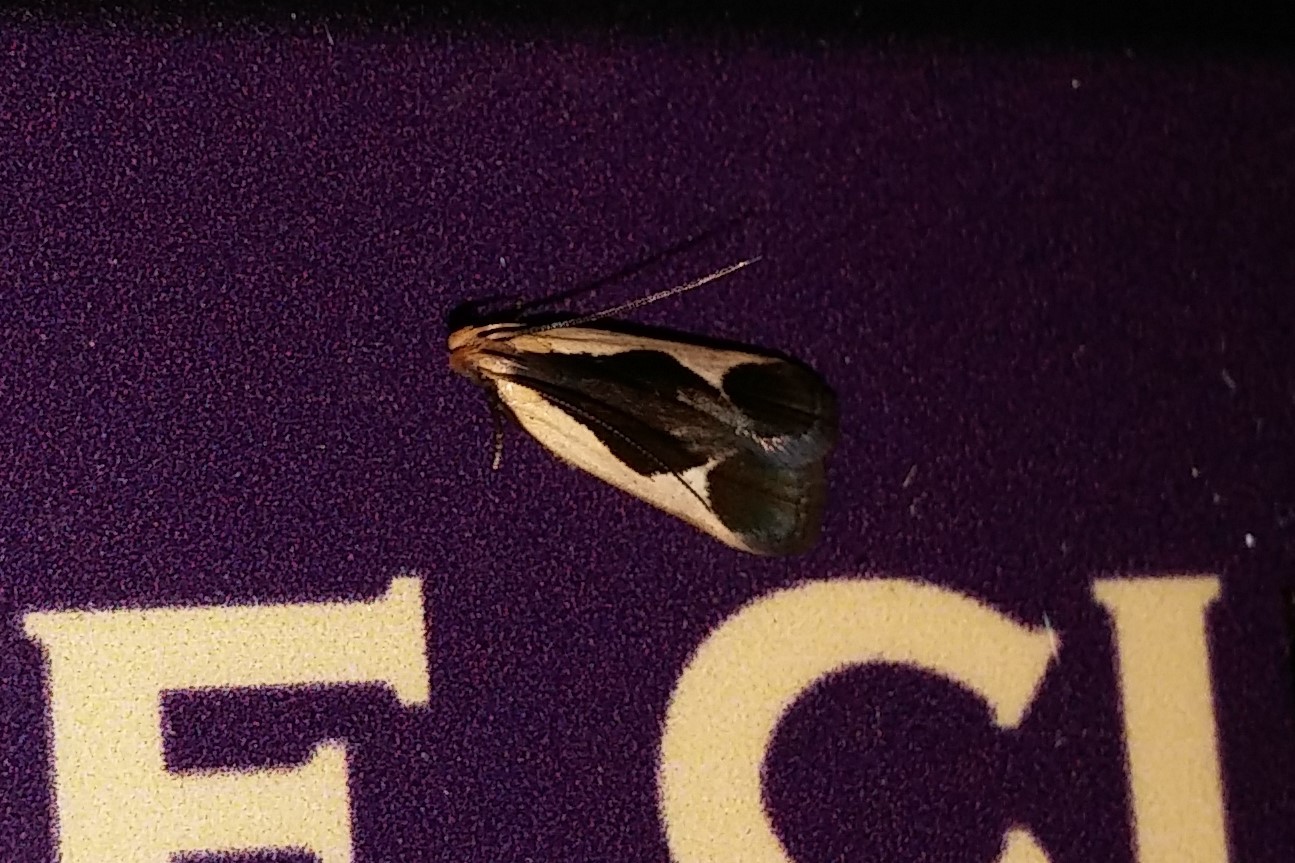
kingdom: Animalia
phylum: Arthropoda
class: Insecta
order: Lepidoptera
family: Gelechiidae
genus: Dichomeris
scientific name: Dichomeris flavocostella
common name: Cream-edged dichomeris moth
